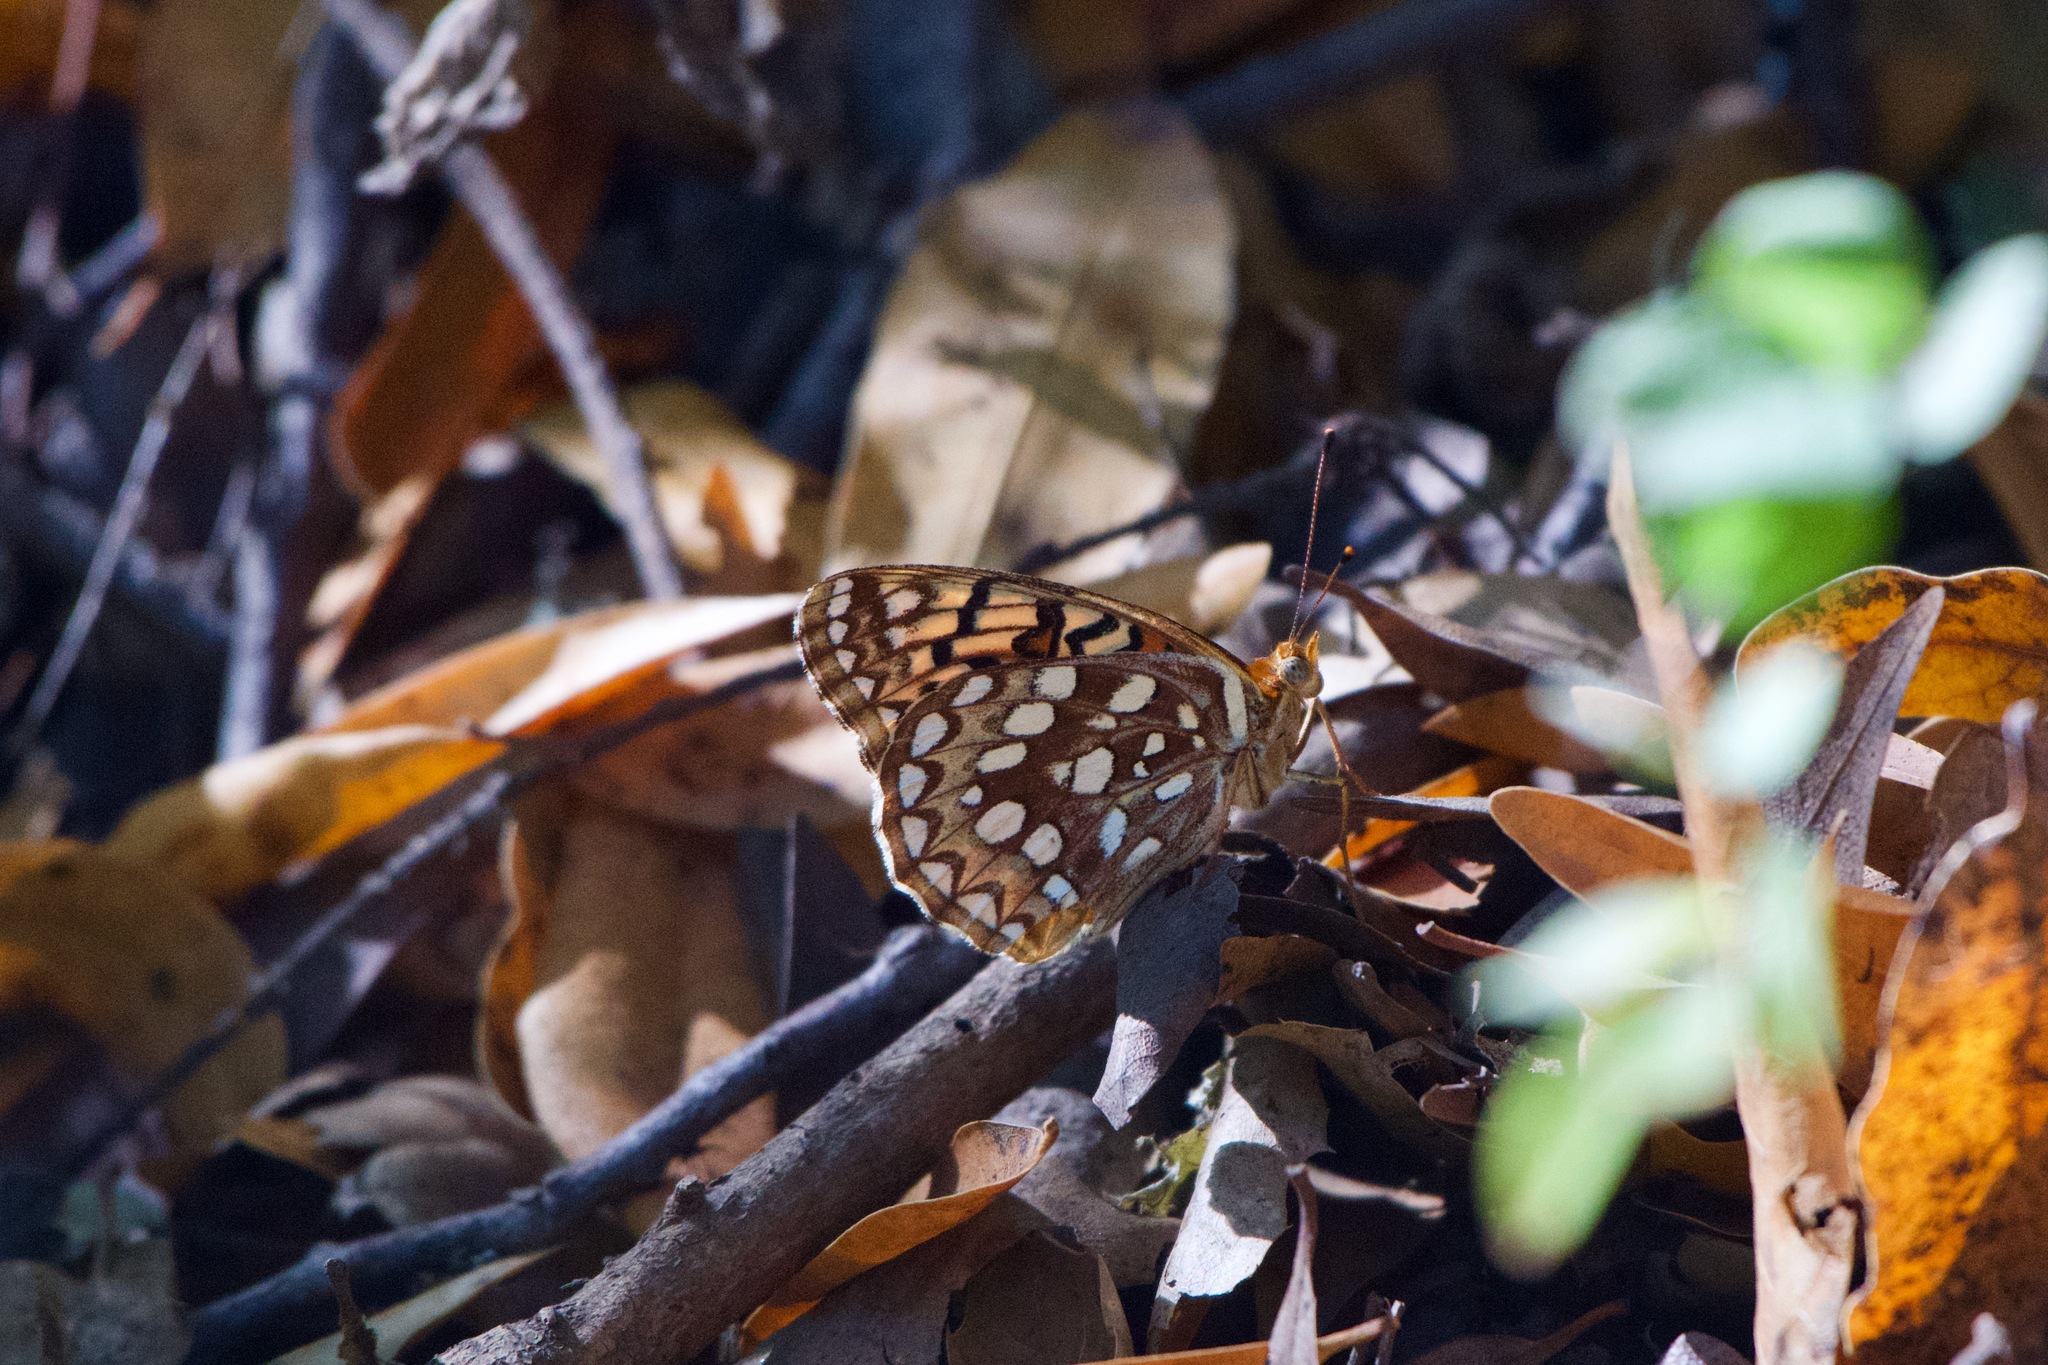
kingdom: Animalia
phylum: Arthropoda
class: Insecta
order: Lepidoptera
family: Nymphalidae
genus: Argynnis
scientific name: Argynnis coronis
